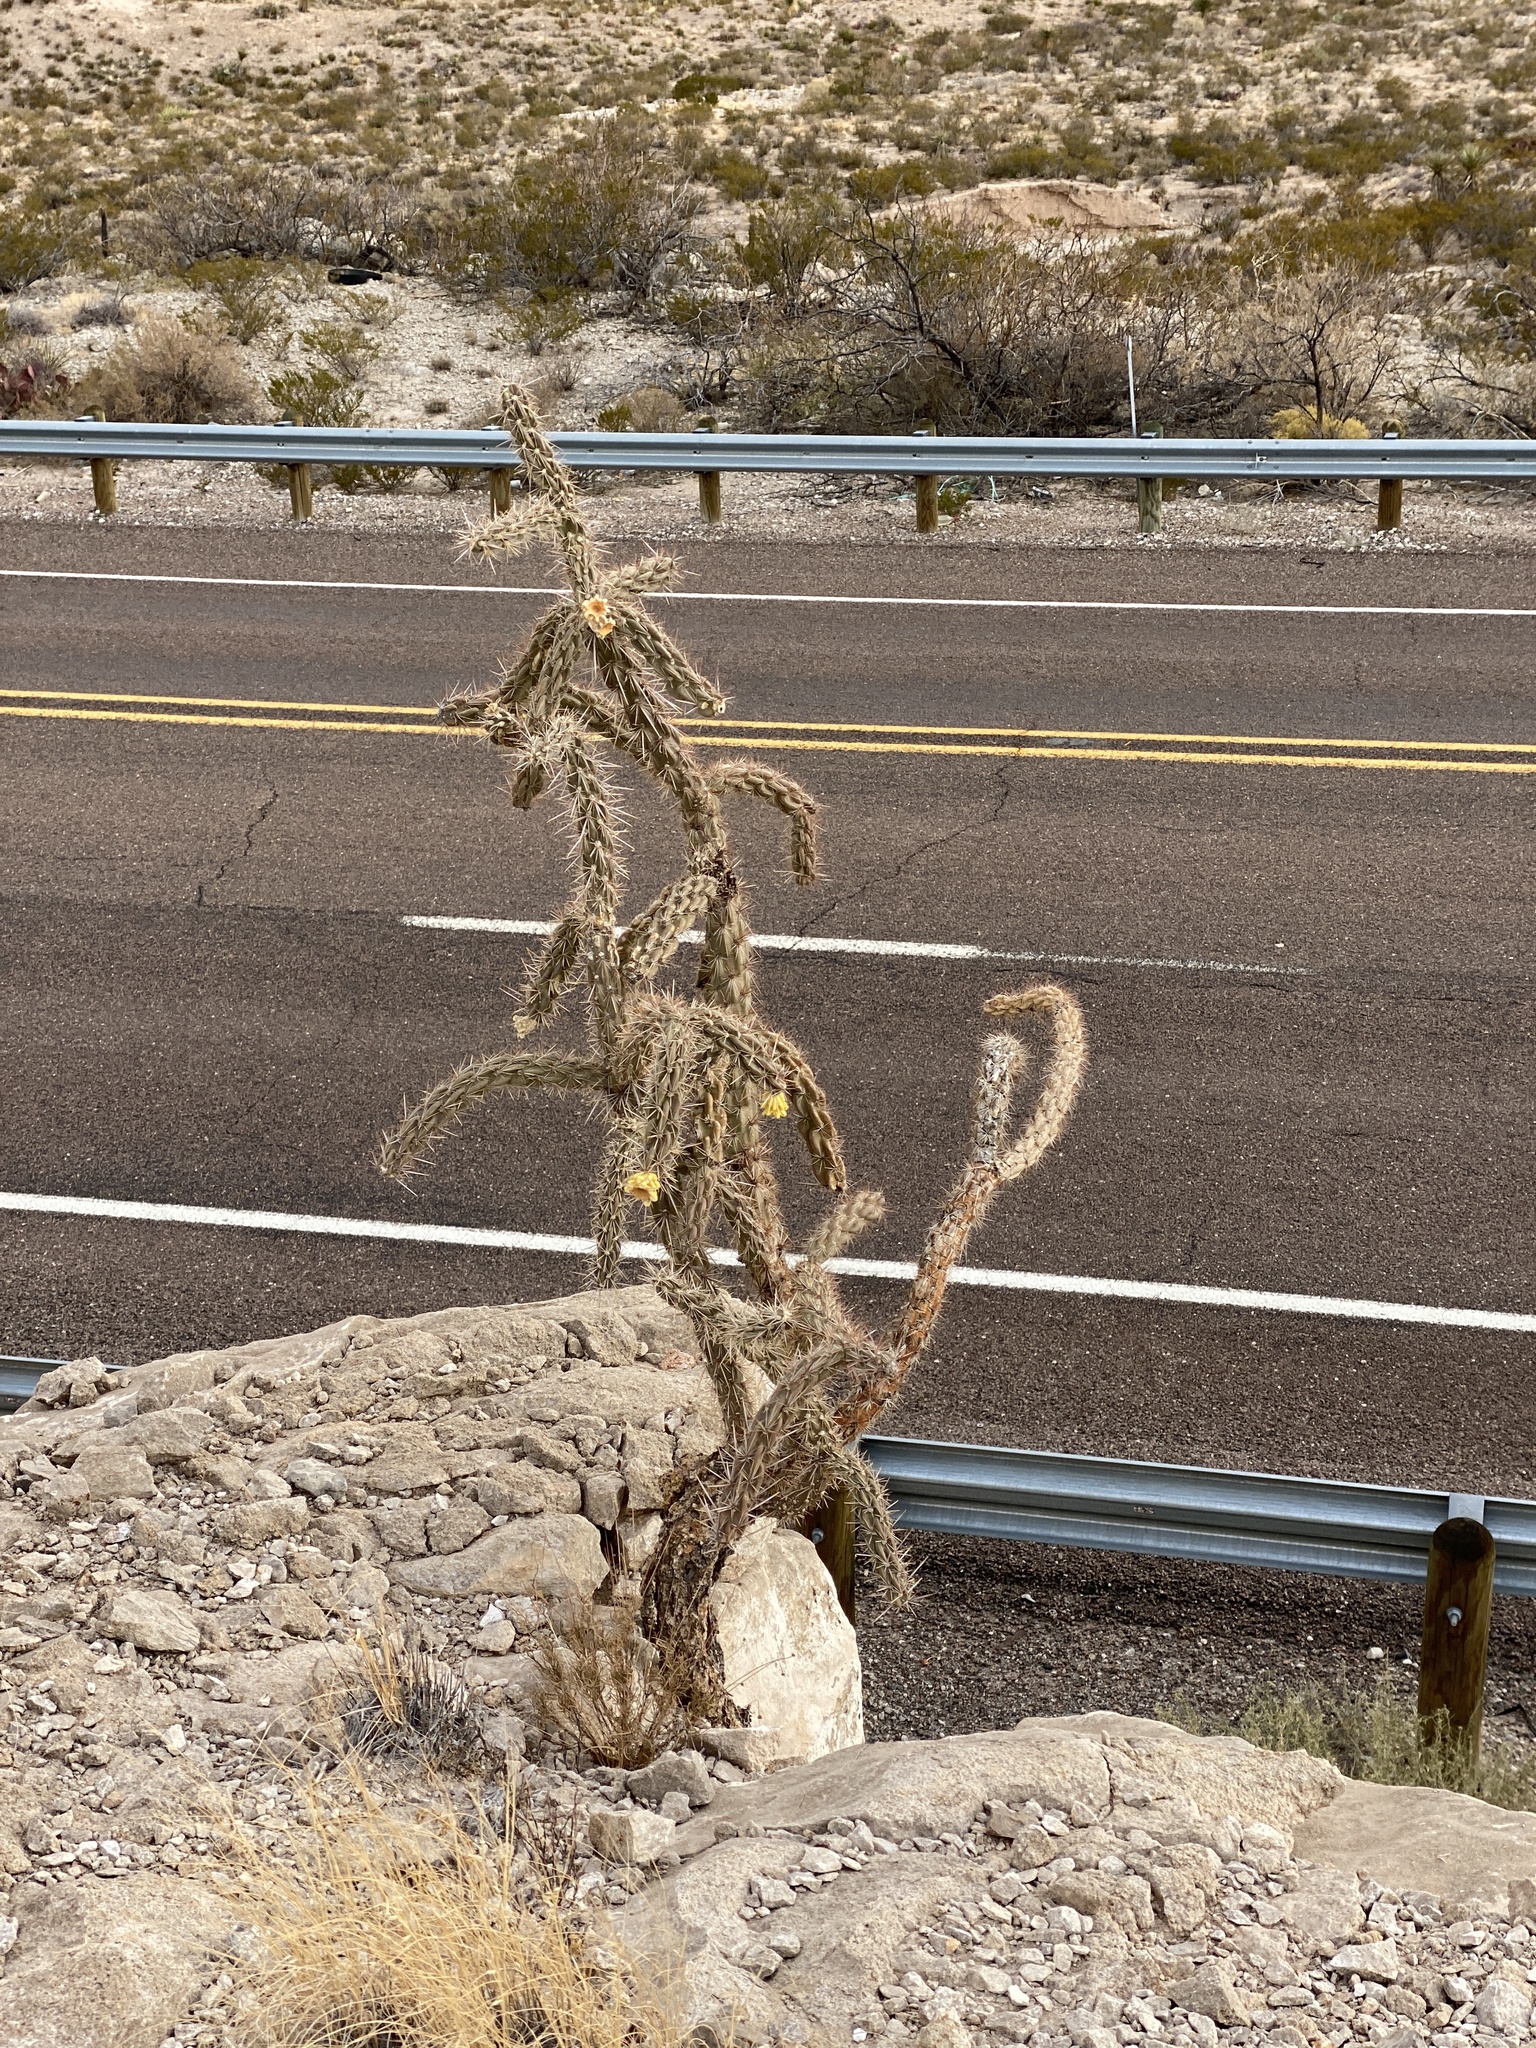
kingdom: Plantae
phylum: Tracheophyta
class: Magnoliopsida
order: Caryophyllales
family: Cactaceae
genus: Cylindropuntia
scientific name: Cylindropuntia imbricata
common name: Candelabrum cactus
